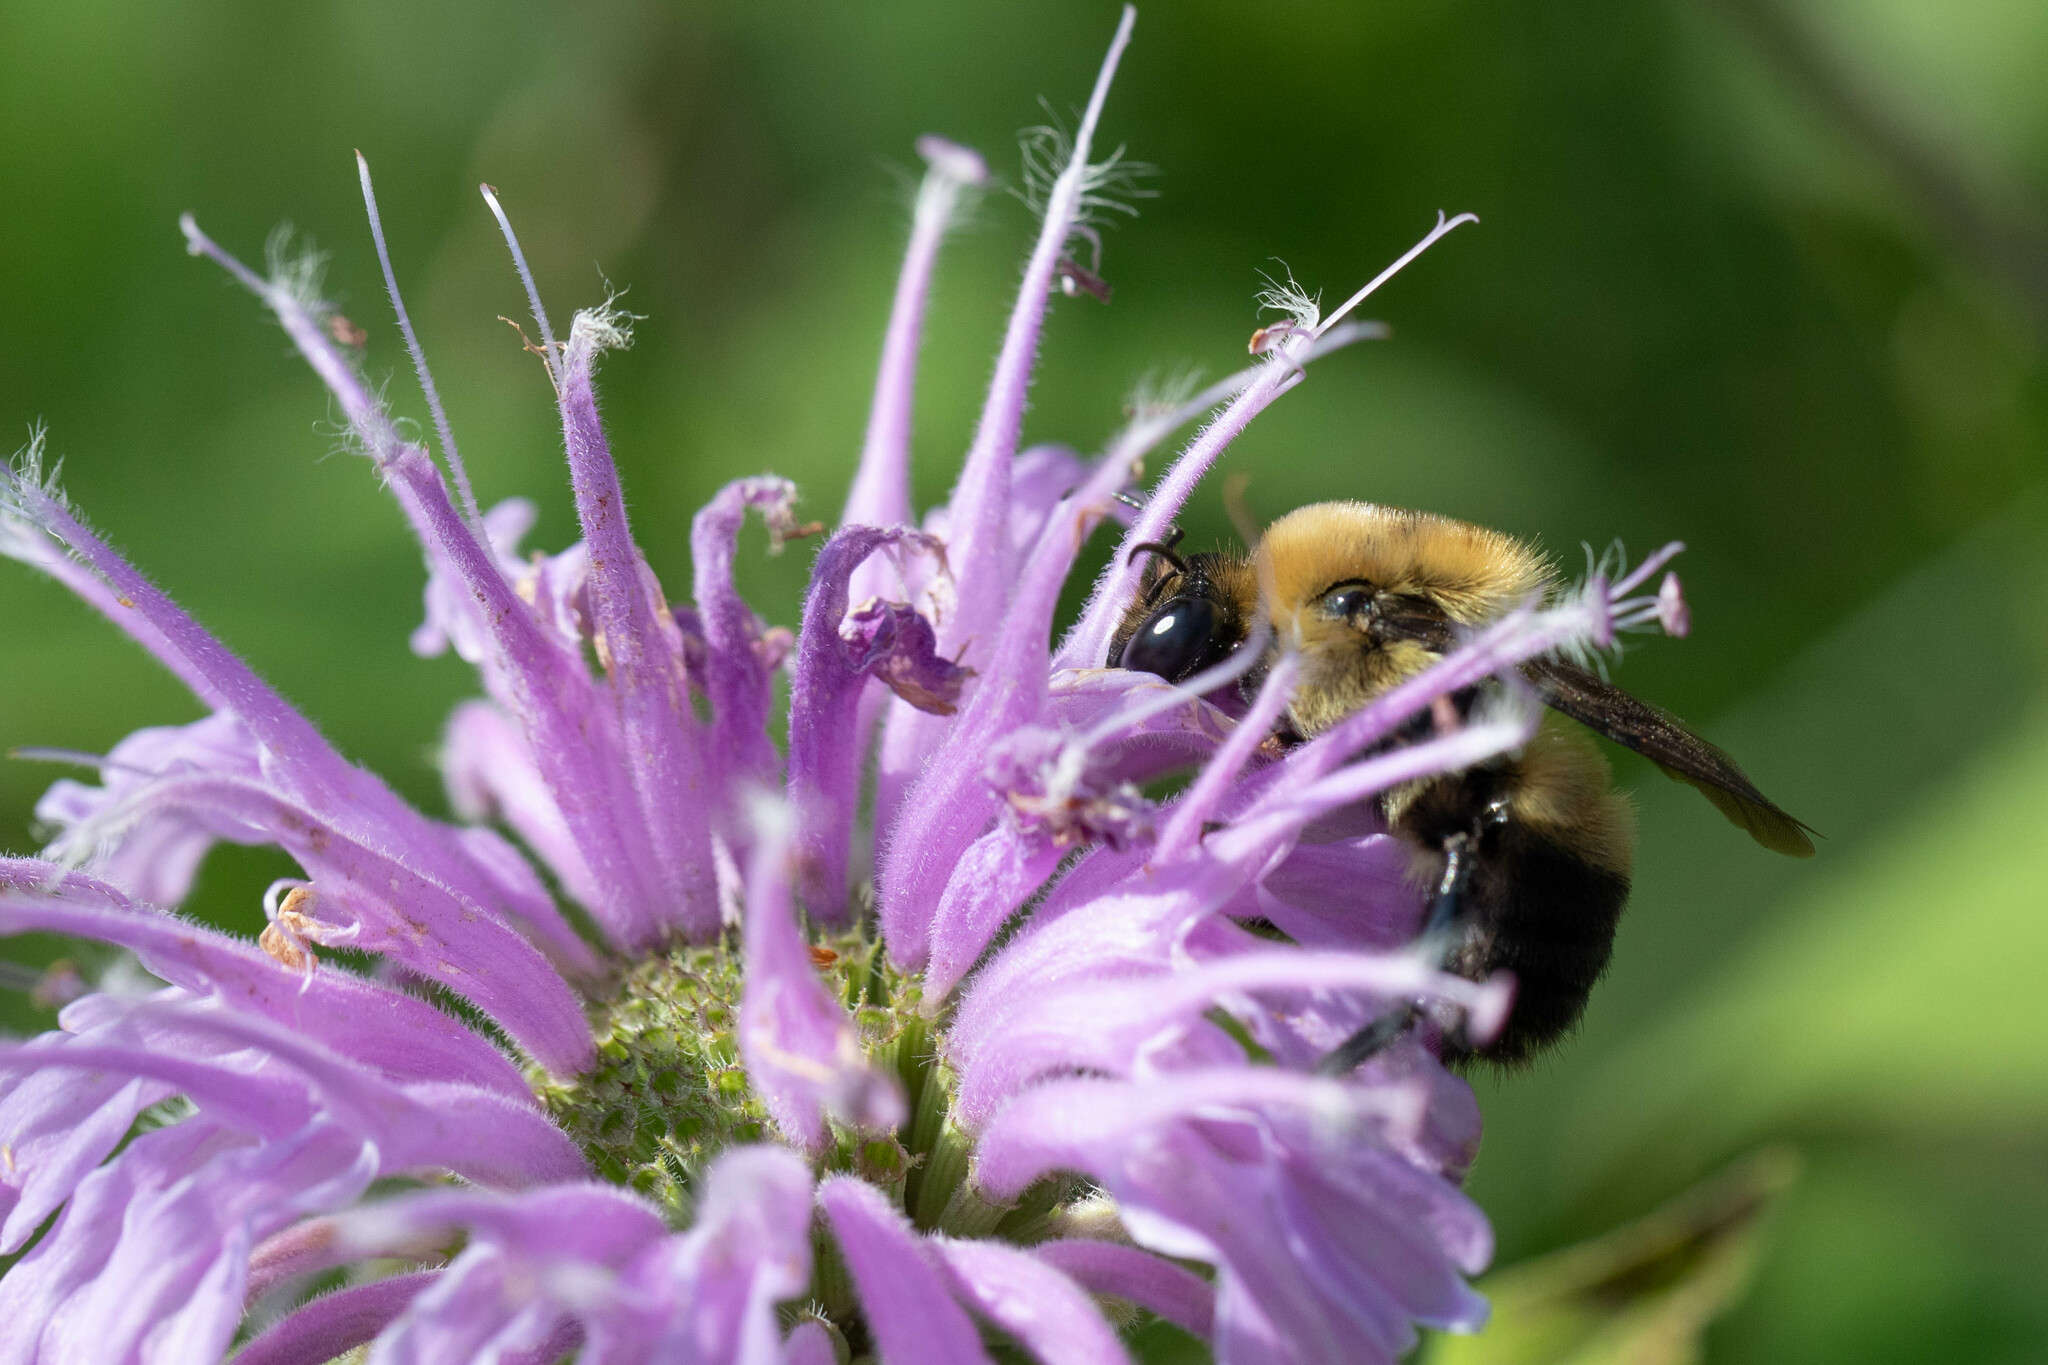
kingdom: Animalia
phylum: Arthropoda
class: Insecta
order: Hymenoptera
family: Apidae
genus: Bombus
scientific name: Bombus griseocollis
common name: Brown-belted bumble bee
